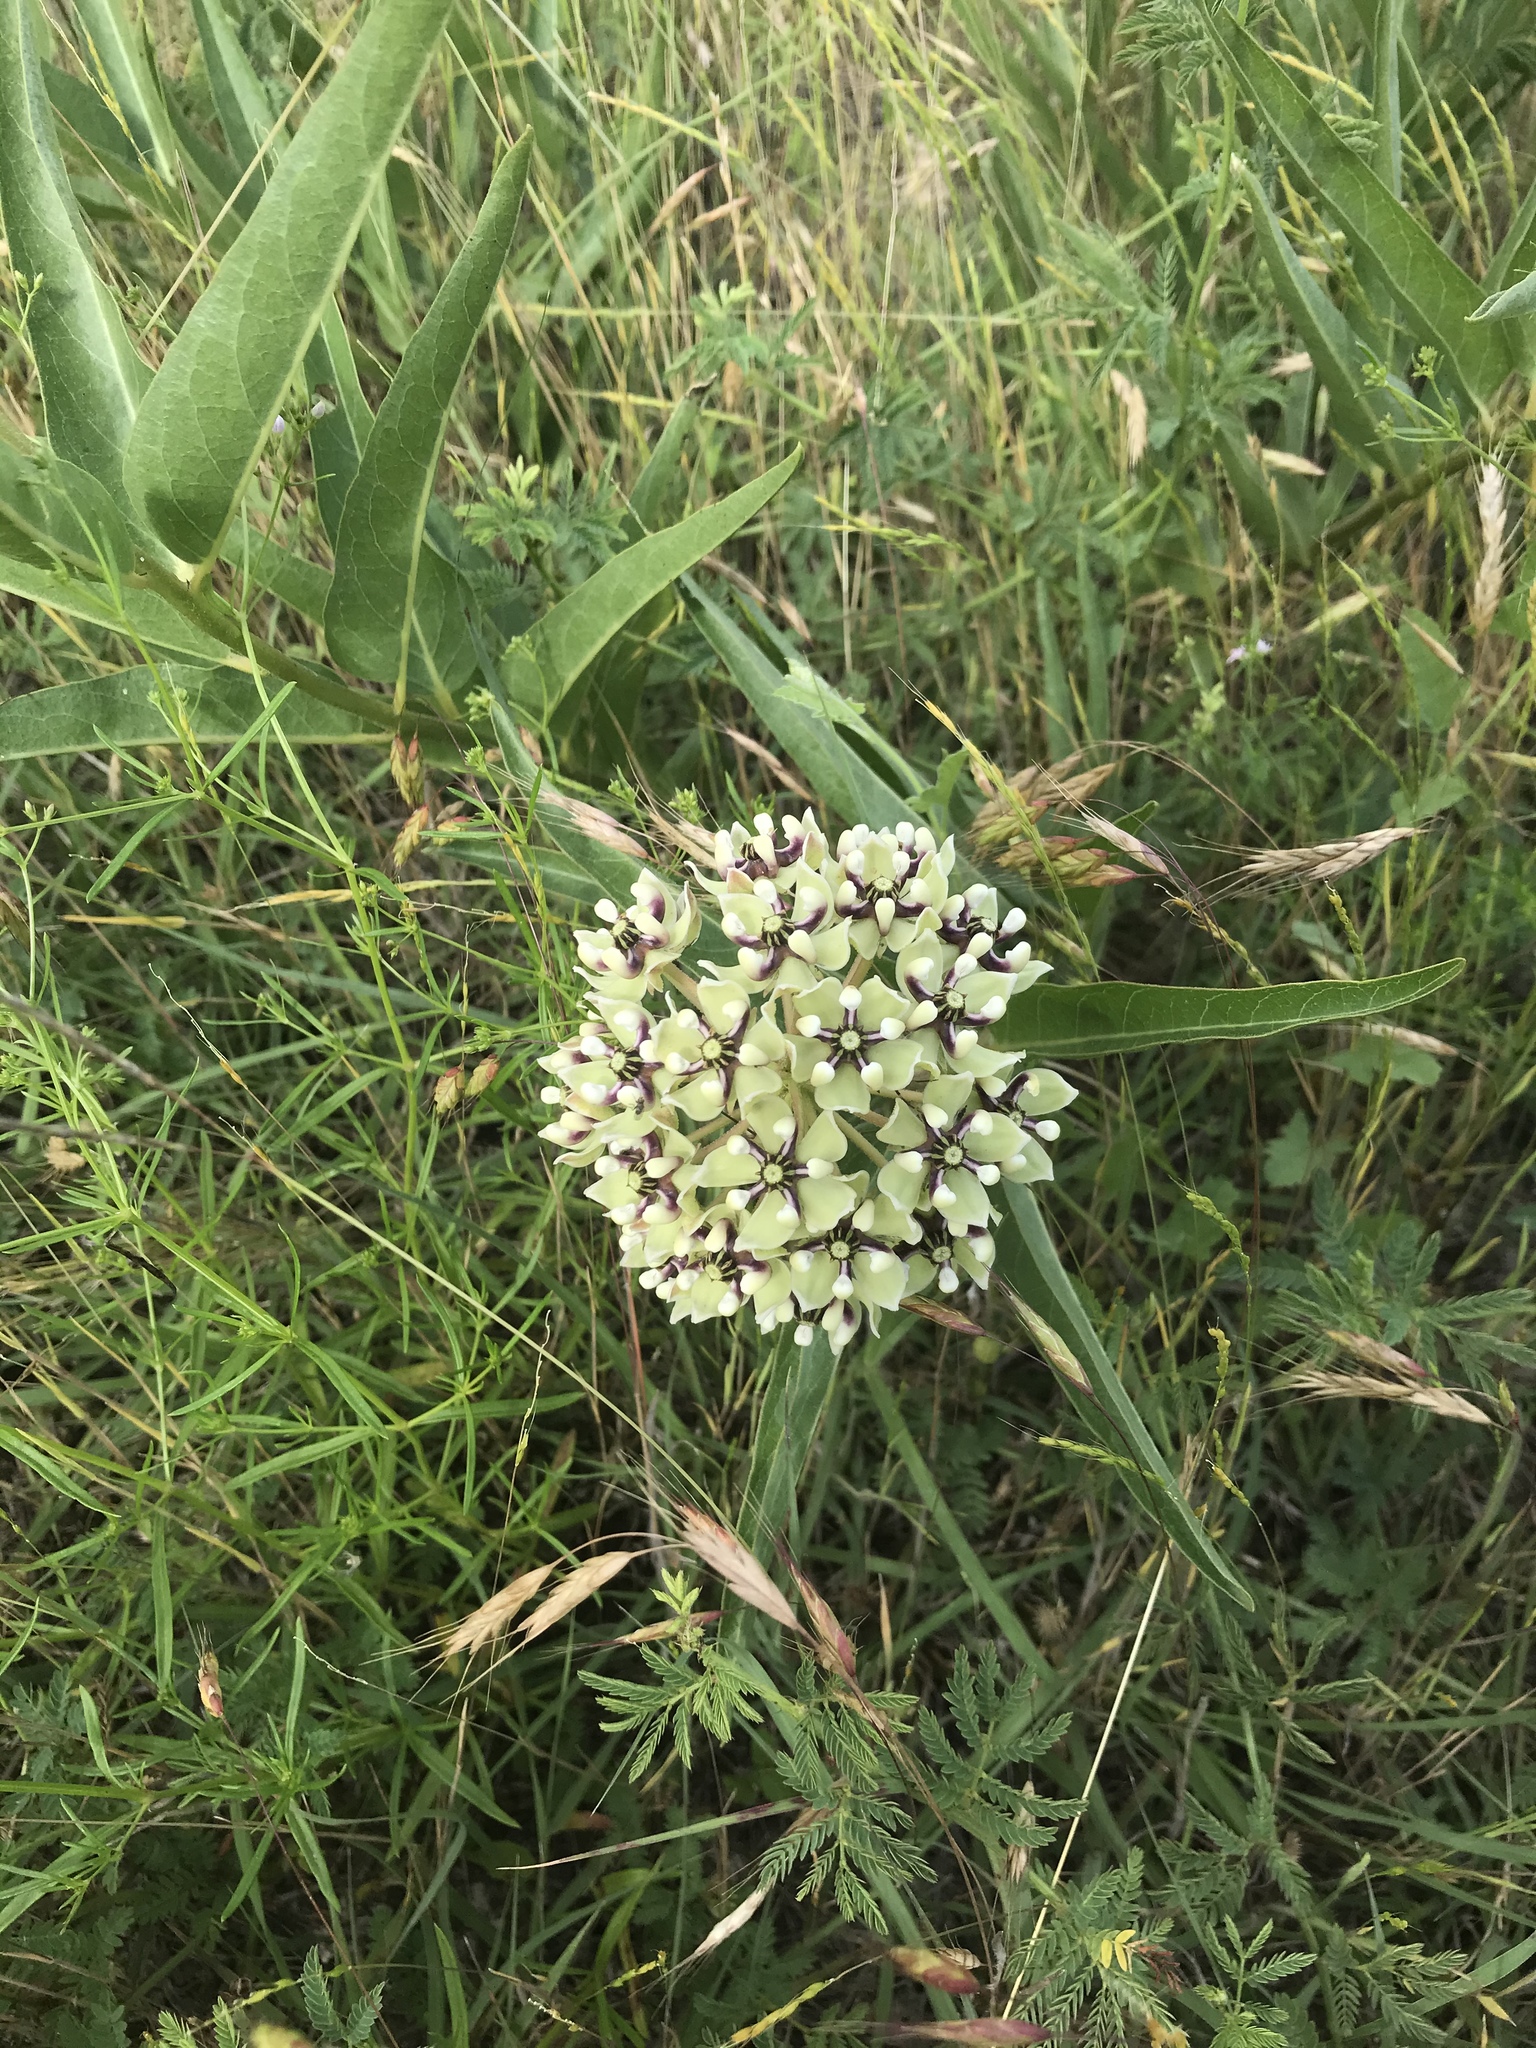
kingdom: Plantae
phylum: Tracheophyta
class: Magnoliopsida
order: Gentianales
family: Apocynaceae
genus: Asclepias
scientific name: Asclepias asperula
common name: Antelope horns
